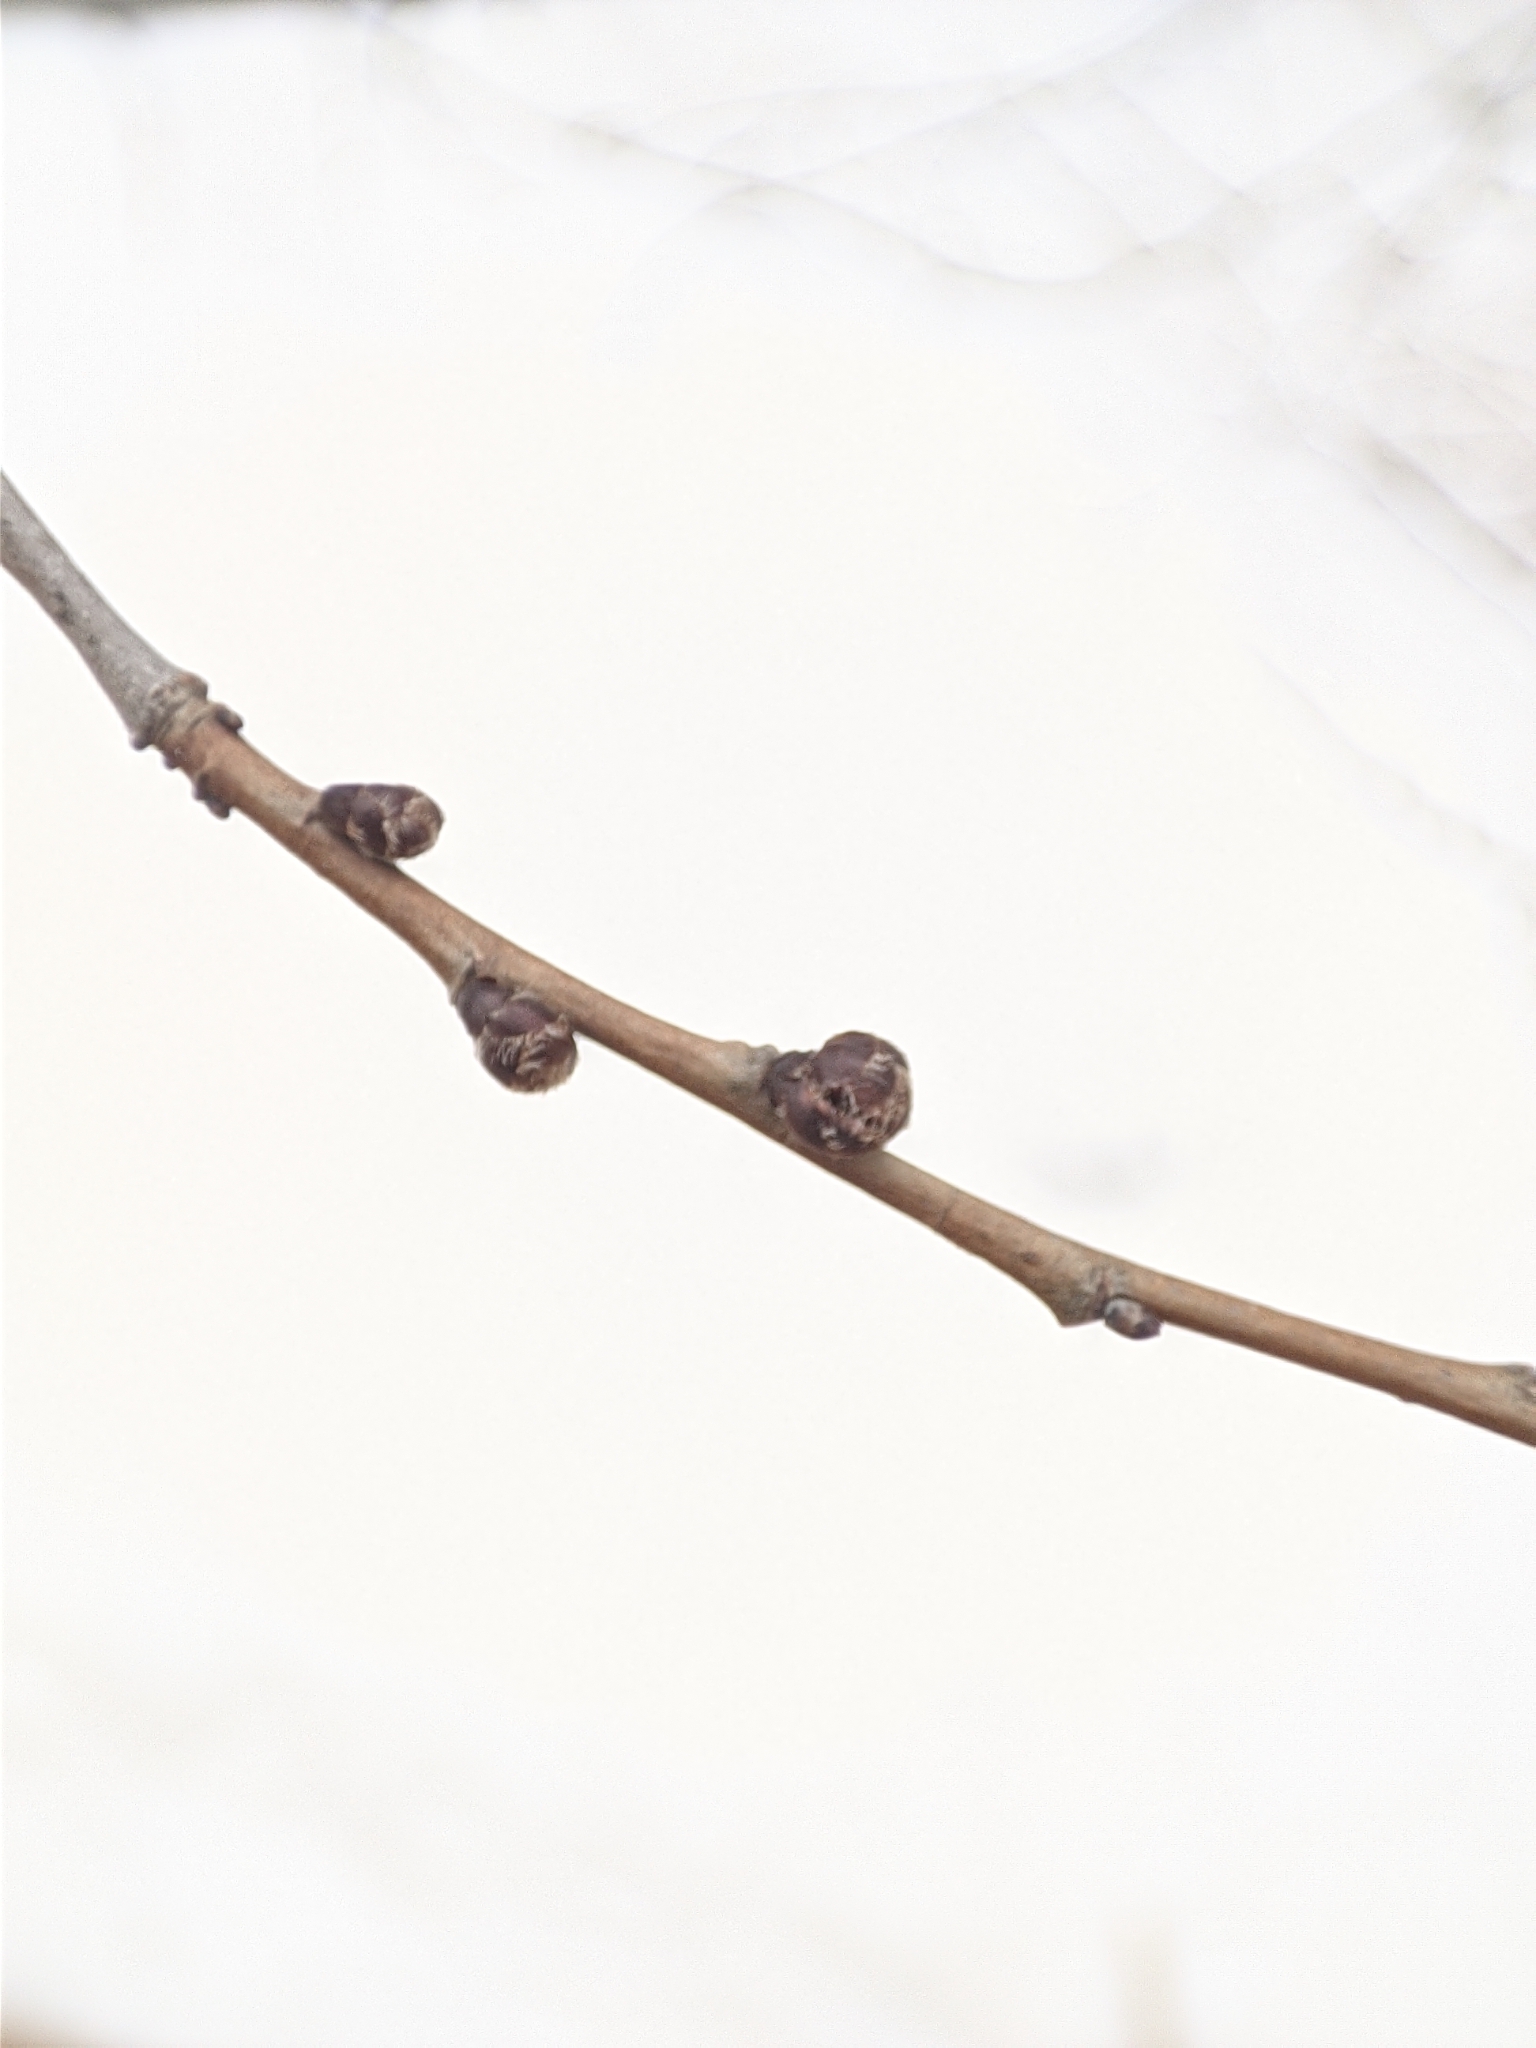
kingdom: Plantae
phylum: Tracheophyta
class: Magnoliopsida
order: Rosales
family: Ulmaceae
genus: Ulmus
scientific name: Ulmus pumila
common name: Siberian elm
